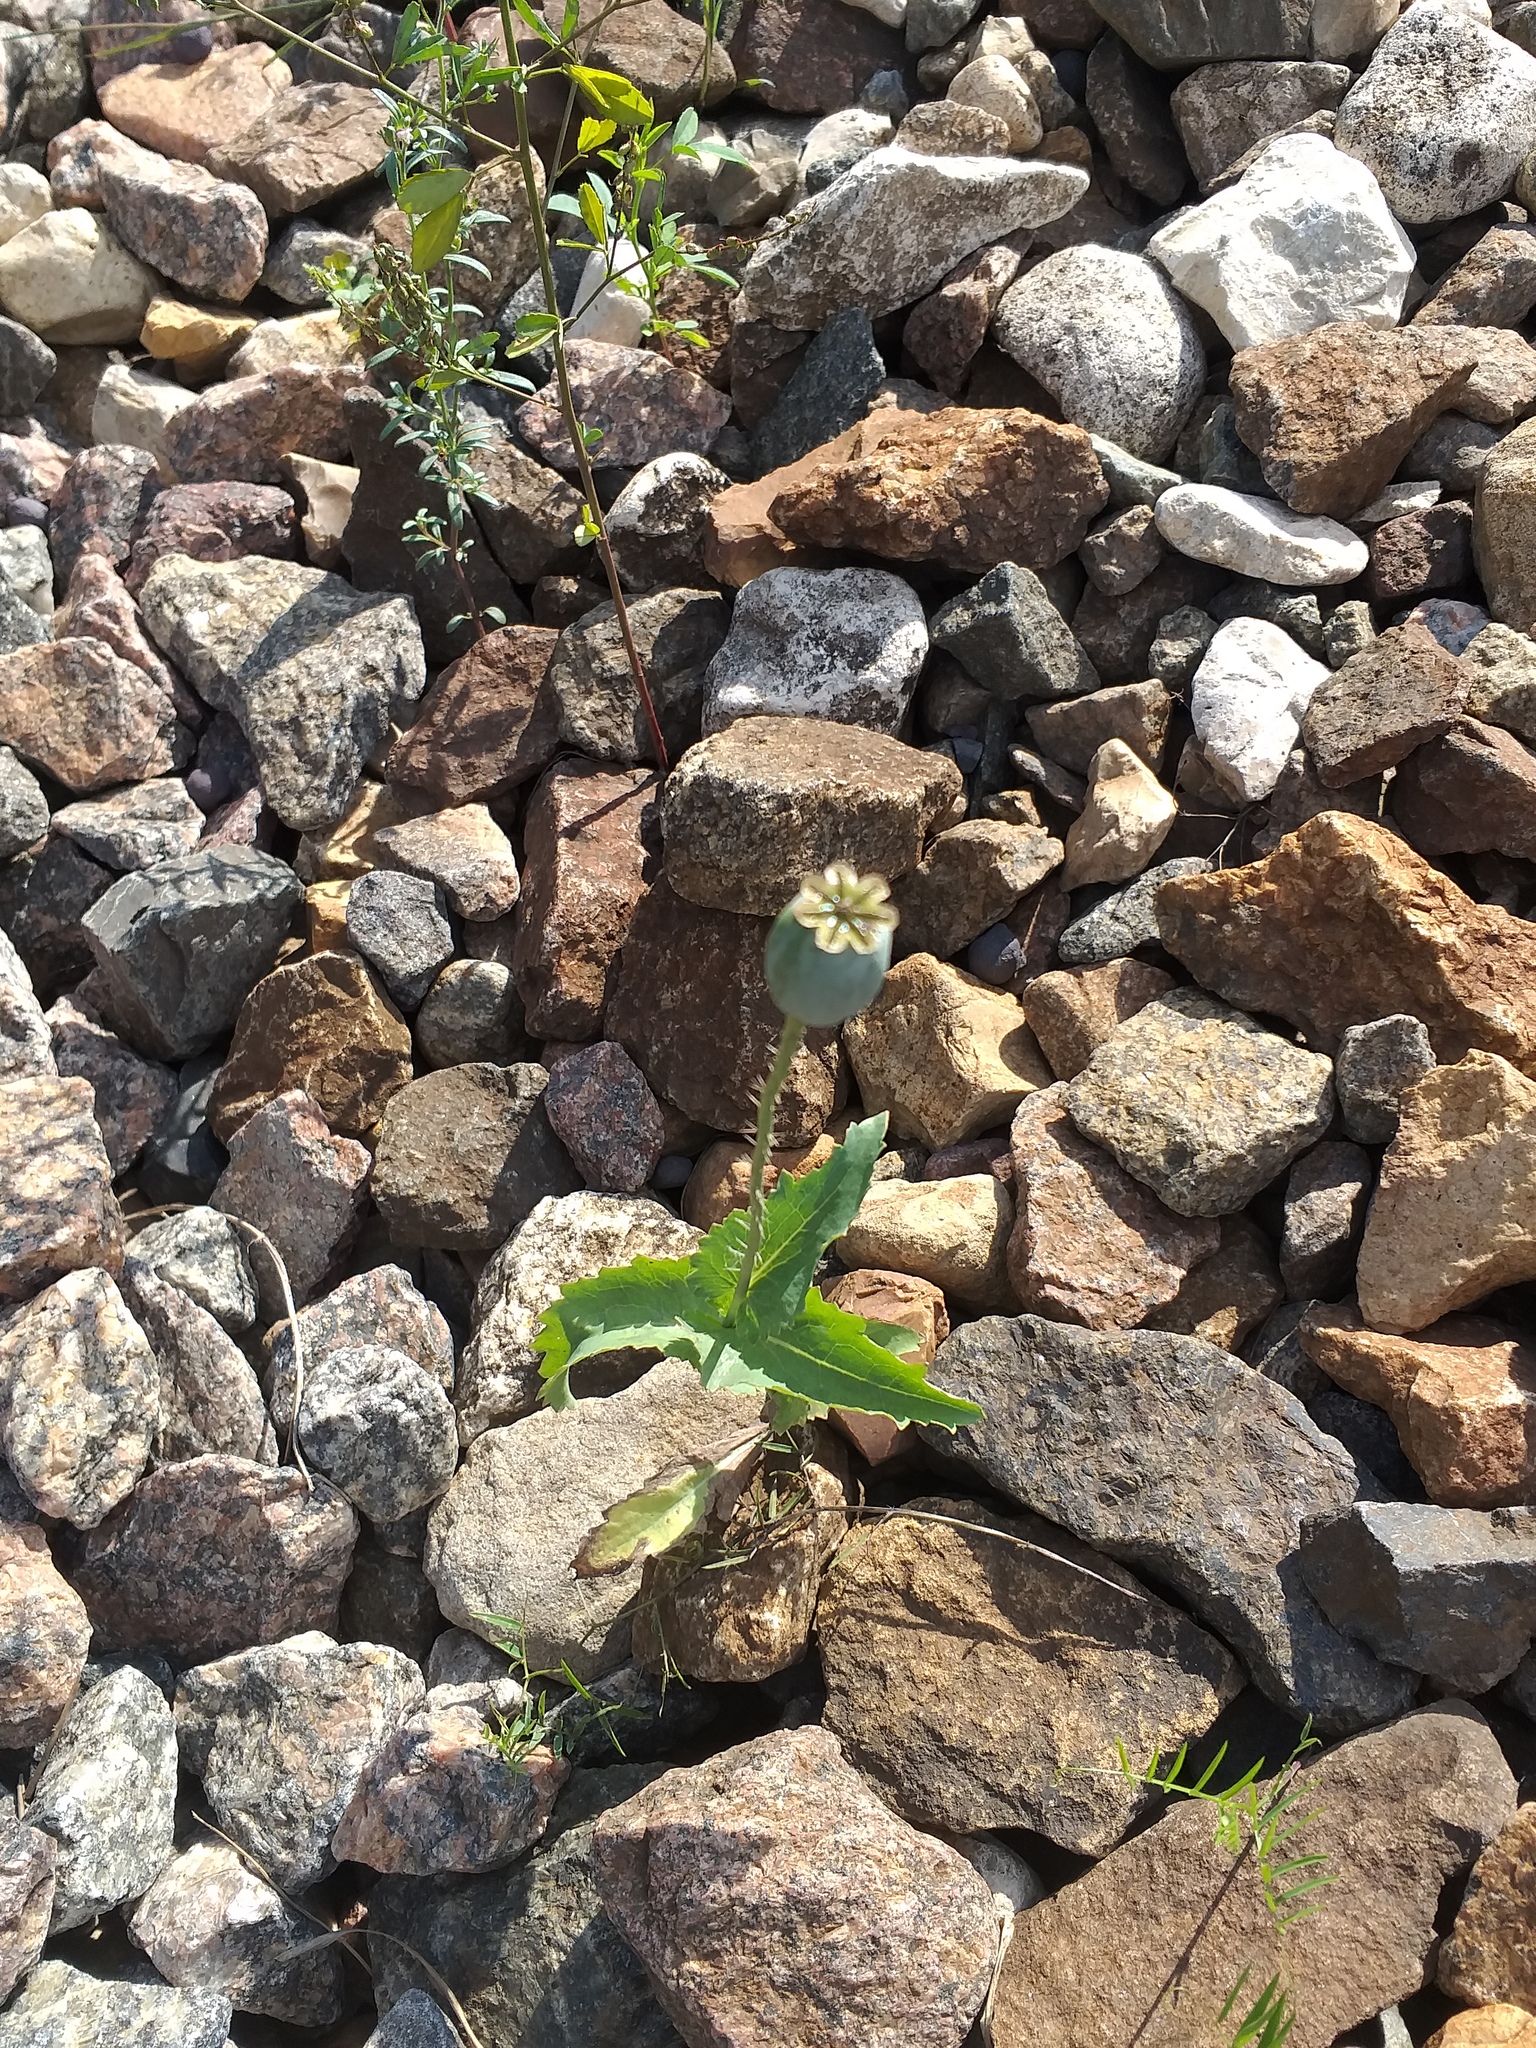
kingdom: Plantae
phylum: Tracheophyta
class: Magnoliopsida
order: Ranunculales
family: Papaveraceae
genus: Papaver
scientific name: Papaver somniferum
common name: Opium poppy
